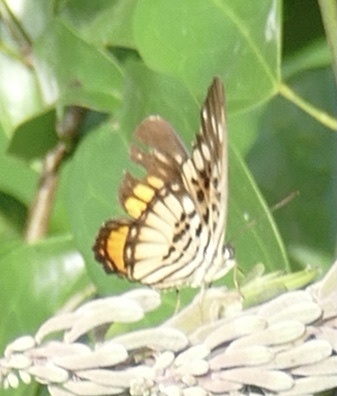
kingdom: Animalia
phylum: Arthropoda
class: Insecta
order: Lepidoptera
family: Nymphalidae
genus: Chloropoea
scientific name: Chloropoea warburgi
